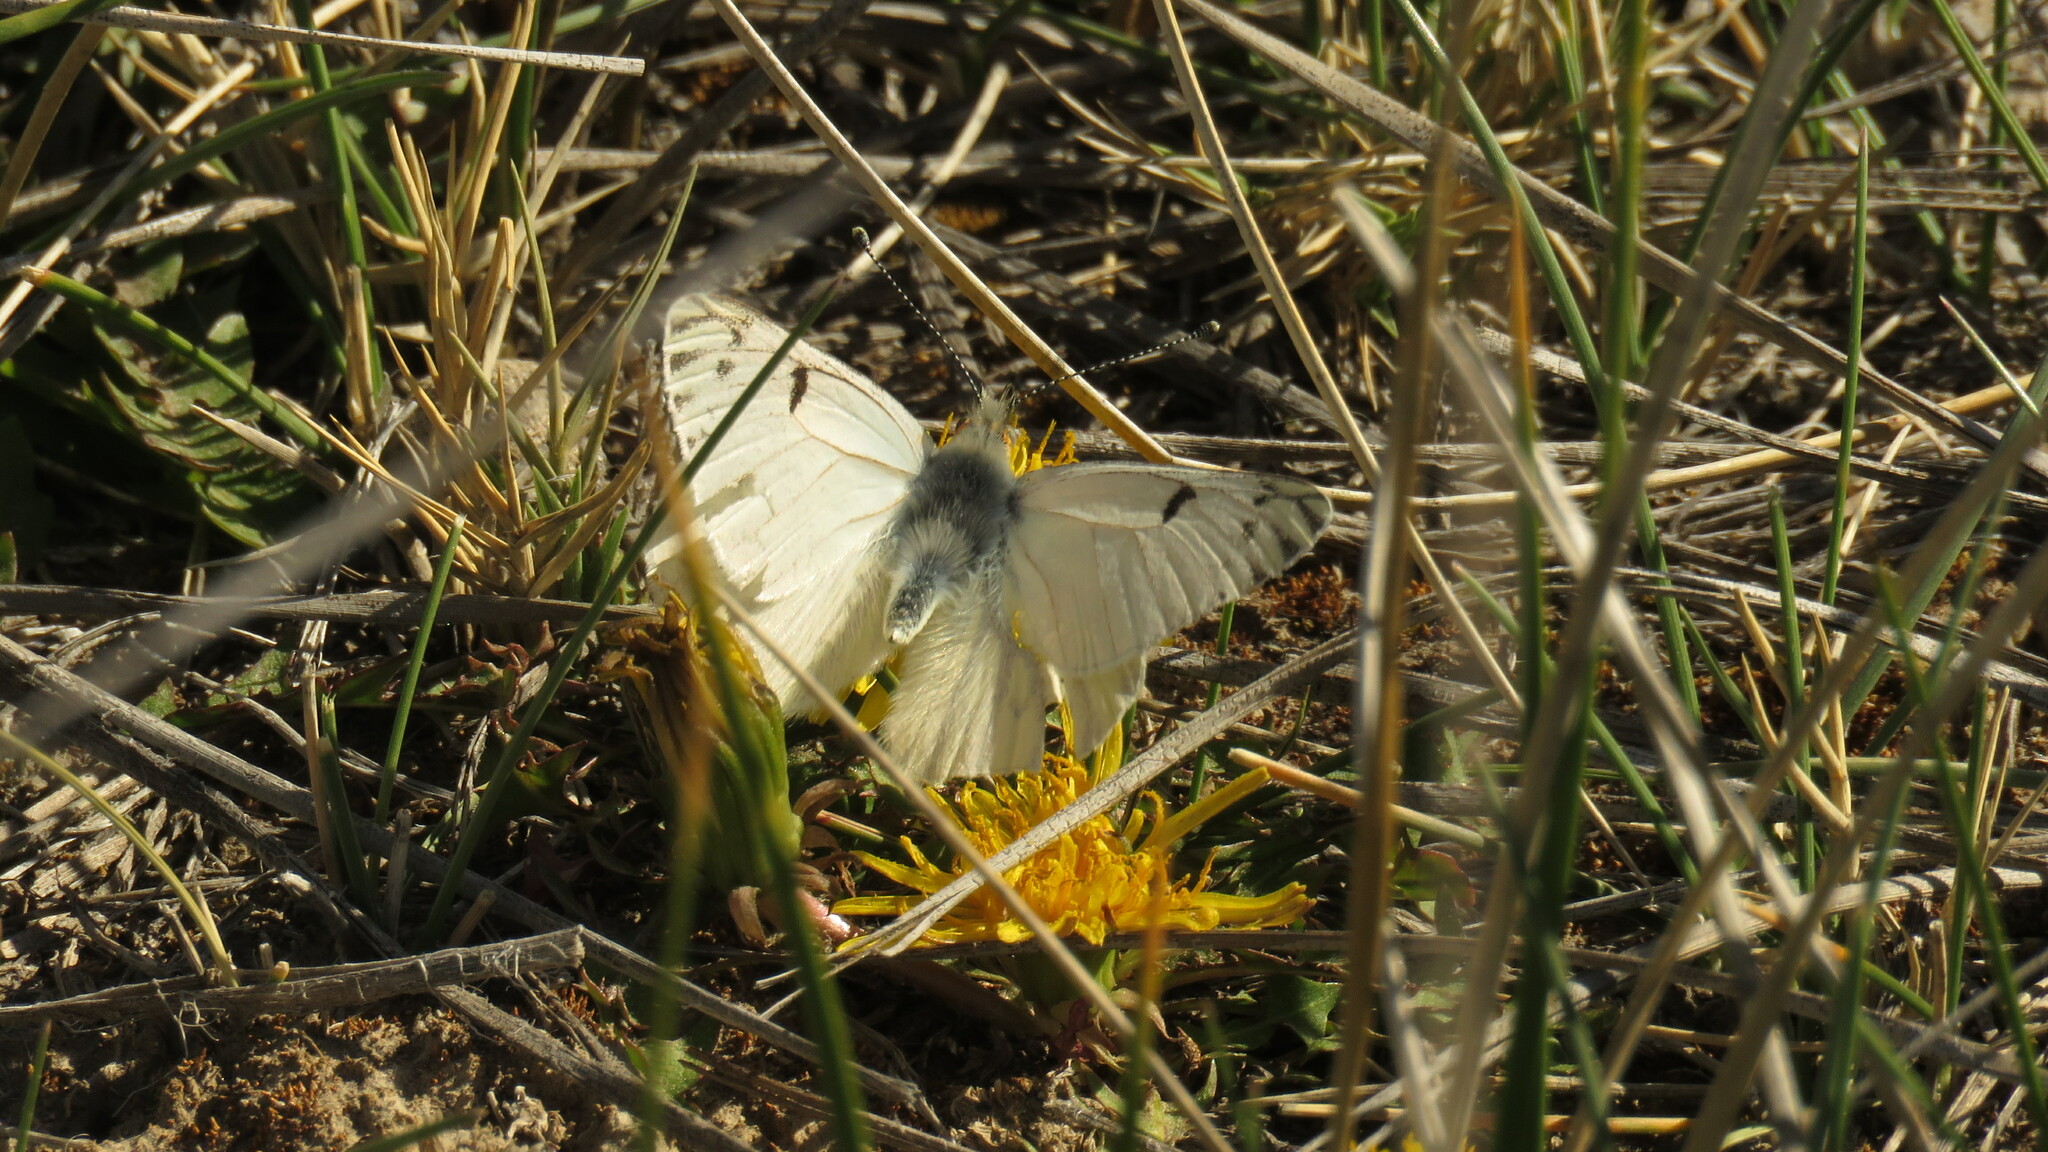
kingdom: Animalia
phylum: Arthropoda
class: Insecta
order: Lepidoptera
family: Pieridae
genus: Tatochila
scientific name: Tatochila mercedis
